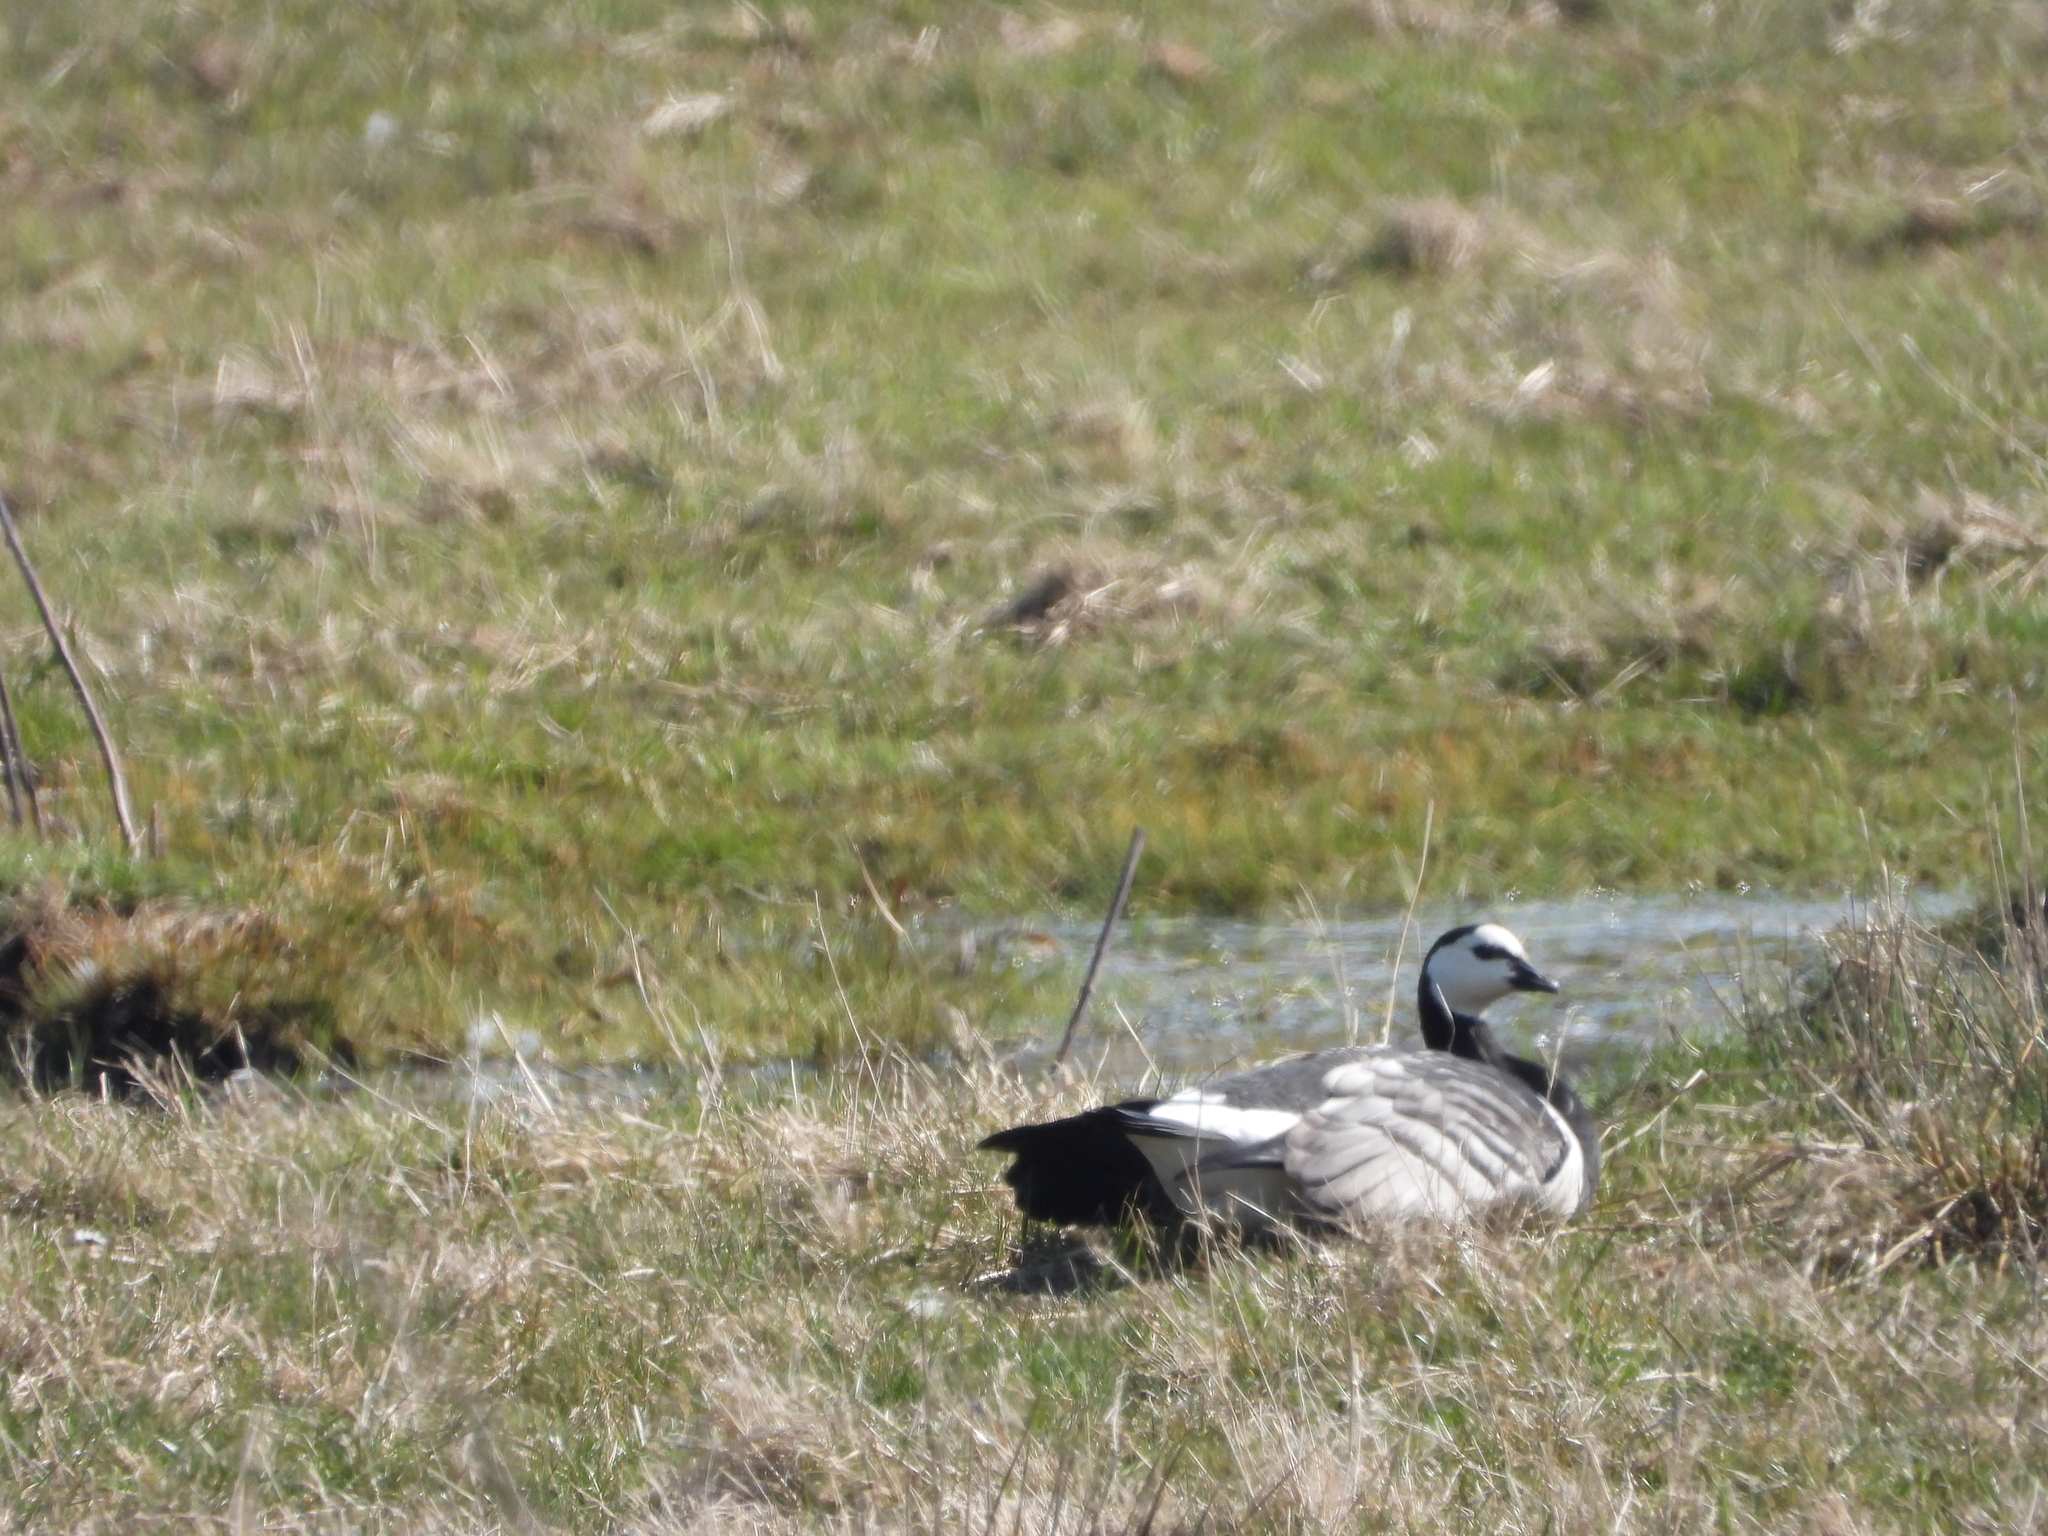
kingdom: Animalia
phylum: Chordata
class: Aves
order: Anseriformes
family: Anatidae
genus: Branta
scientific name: Branta leucopsis
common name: Barnacle goose
